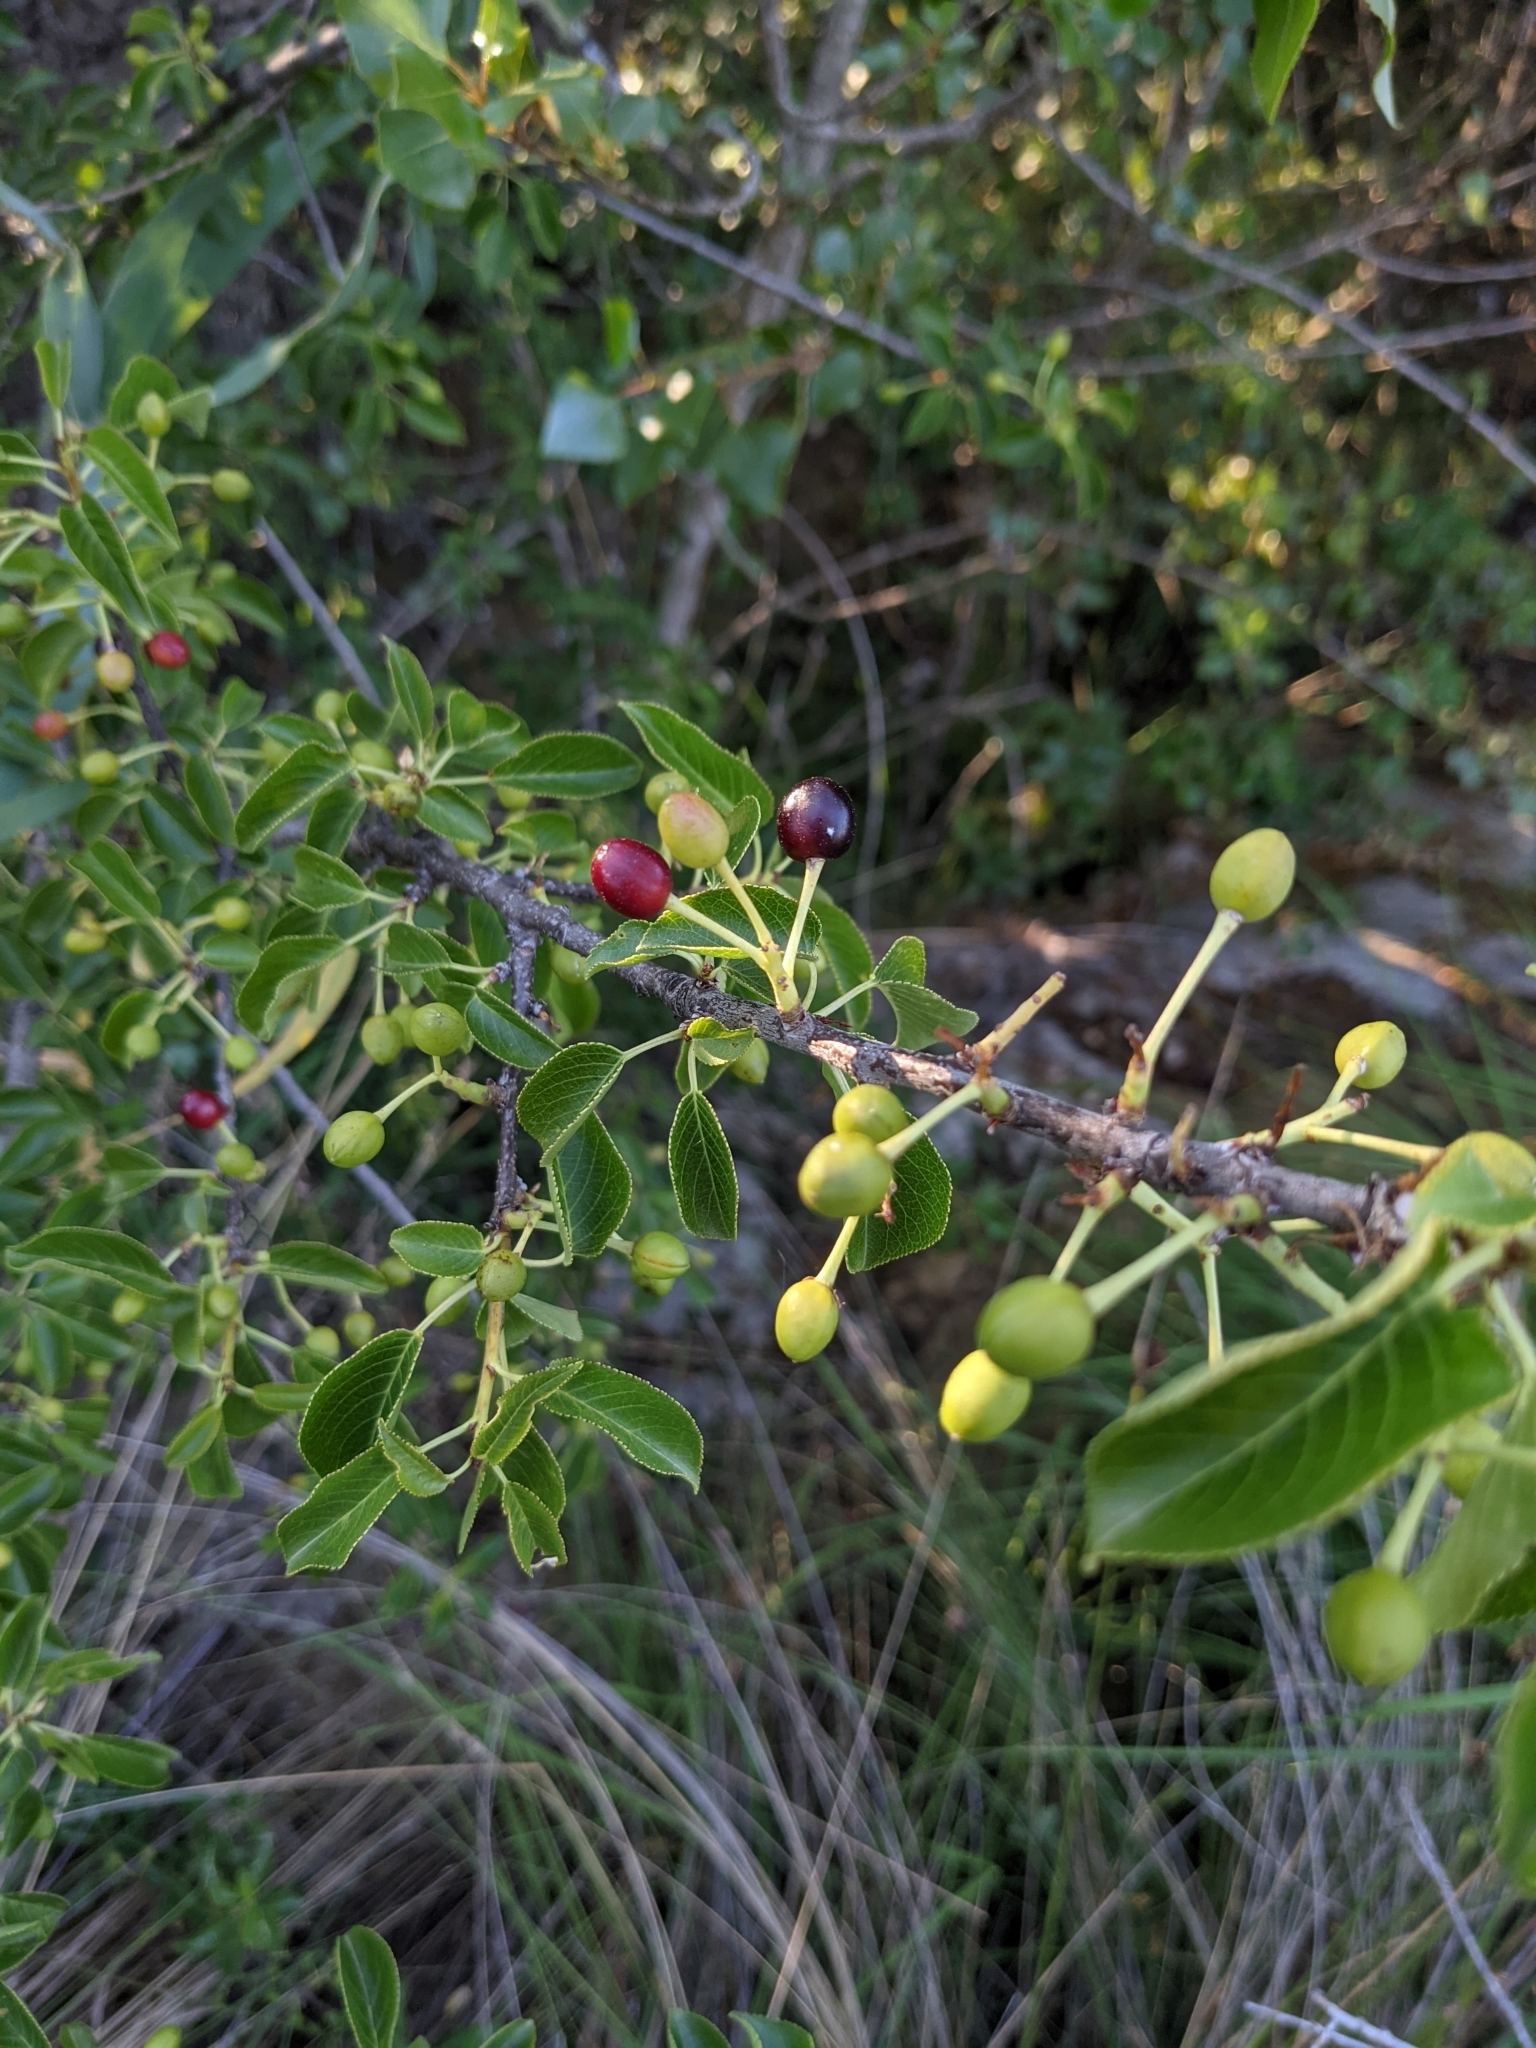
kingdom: Plantae
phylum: Tracheophyta
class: Magnoliopsida
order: Rosales
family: Rosaceae
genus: Prunus
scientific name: Prunus mahaleb
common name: Mahaleb cherry
